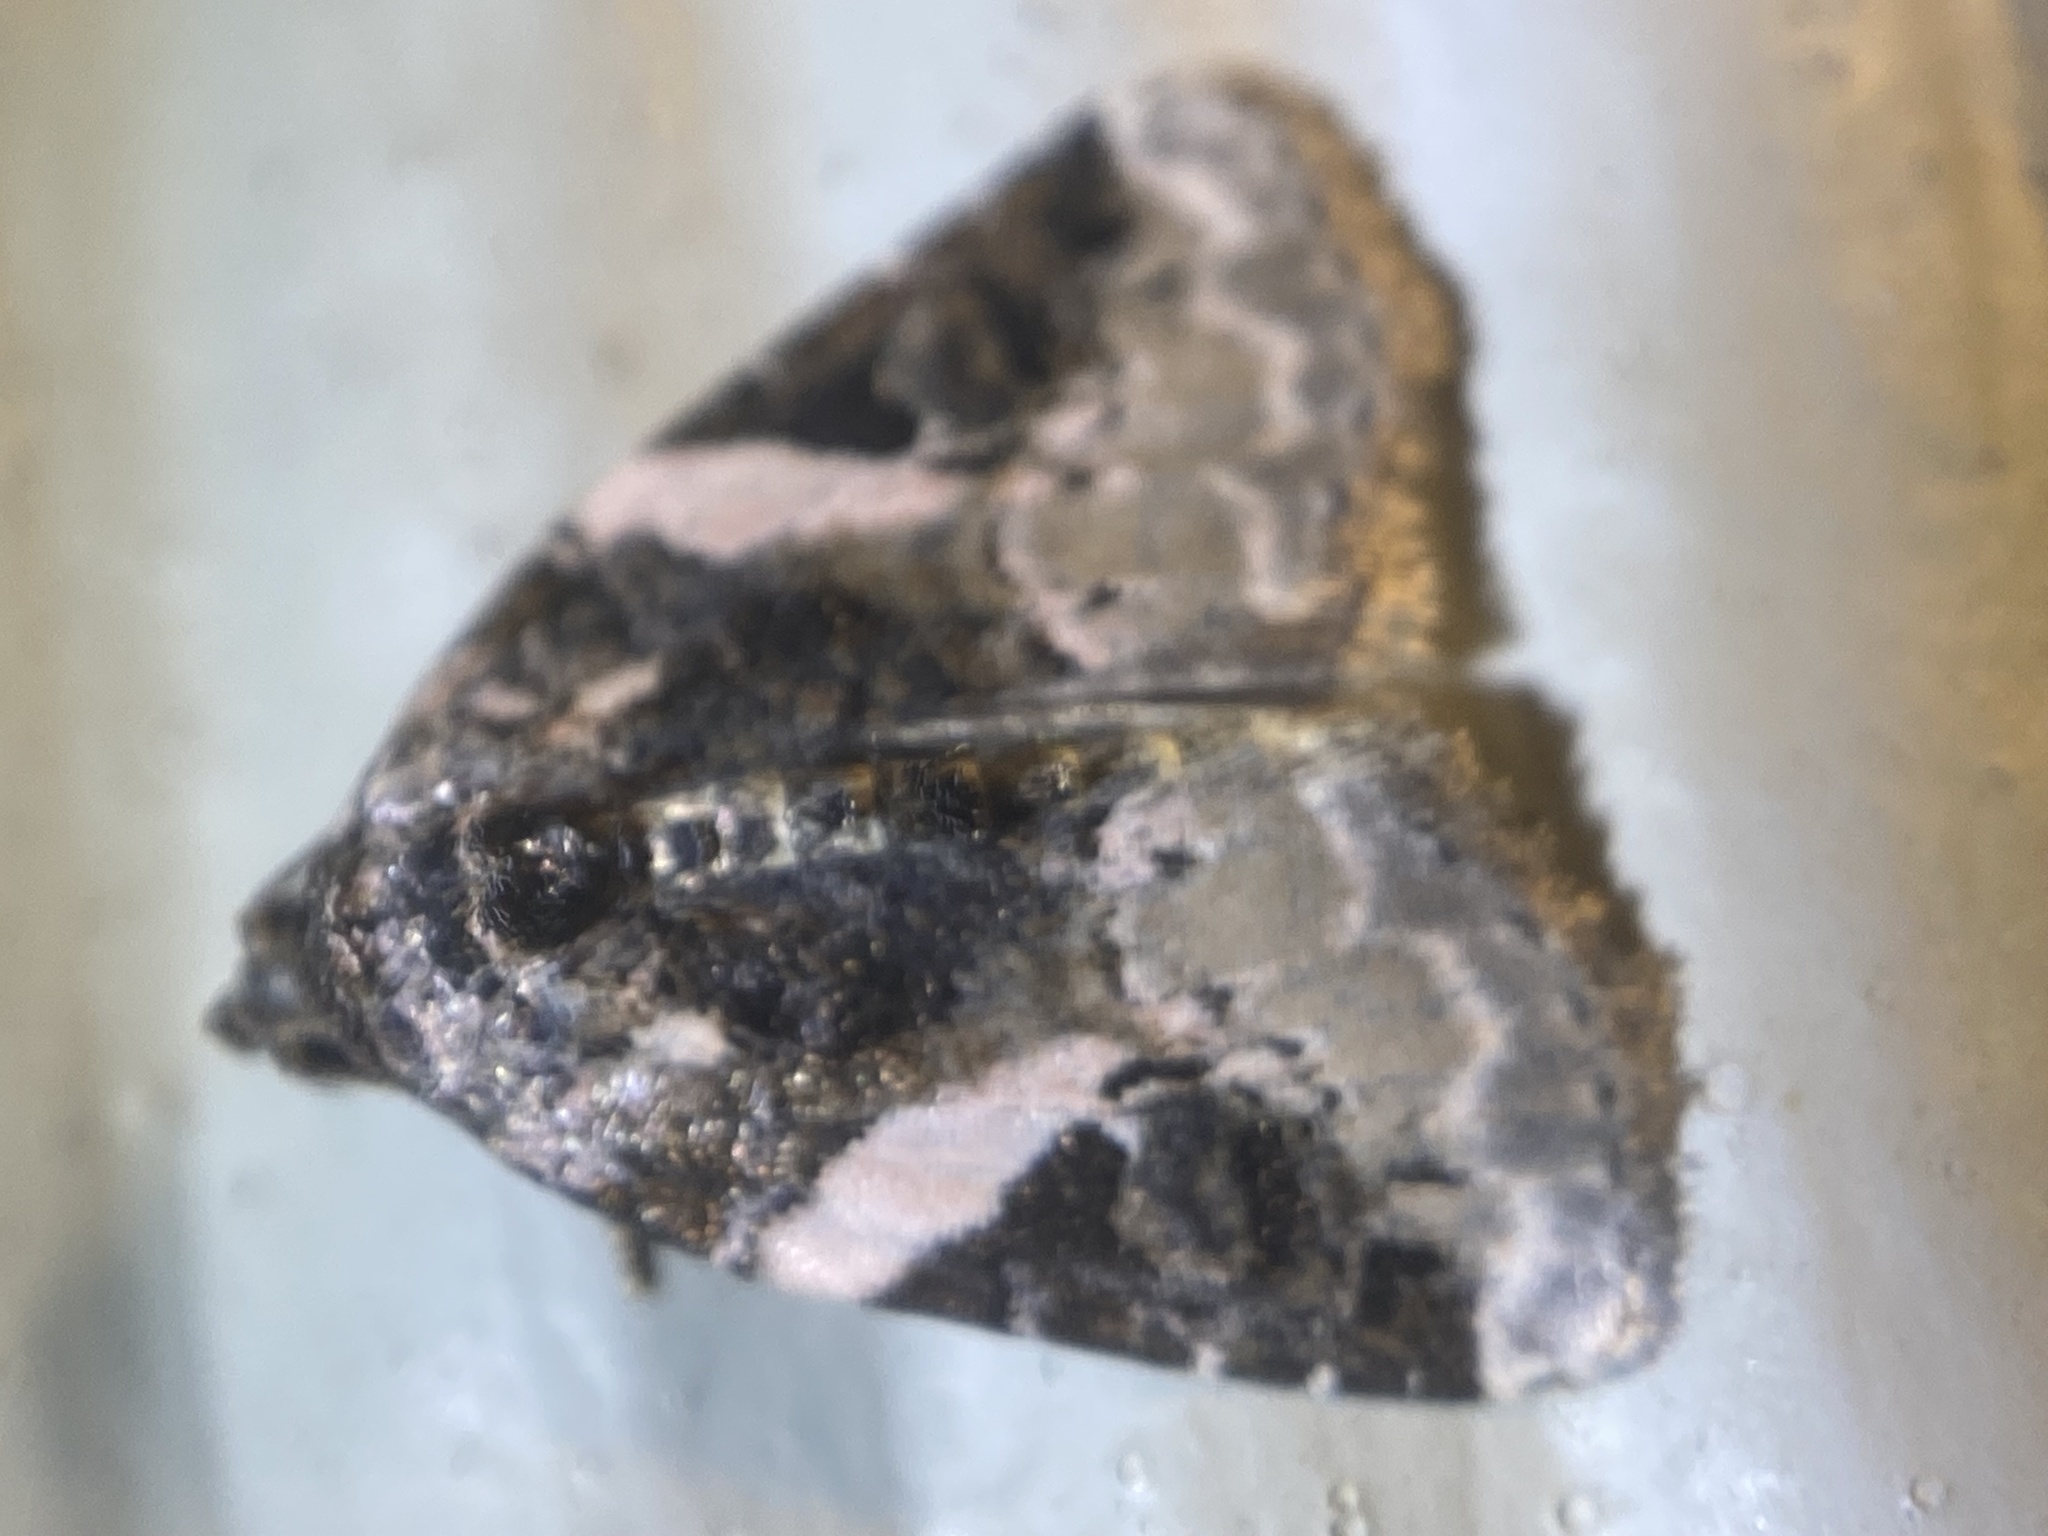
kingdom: Animalia
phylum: Arthropoda
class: Insecta
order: Lepidoptera
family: Noctuidae
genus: Pseudeustrotia
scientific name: Pseudeustrotia carneola
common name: Pink-barred lithacodia moth
